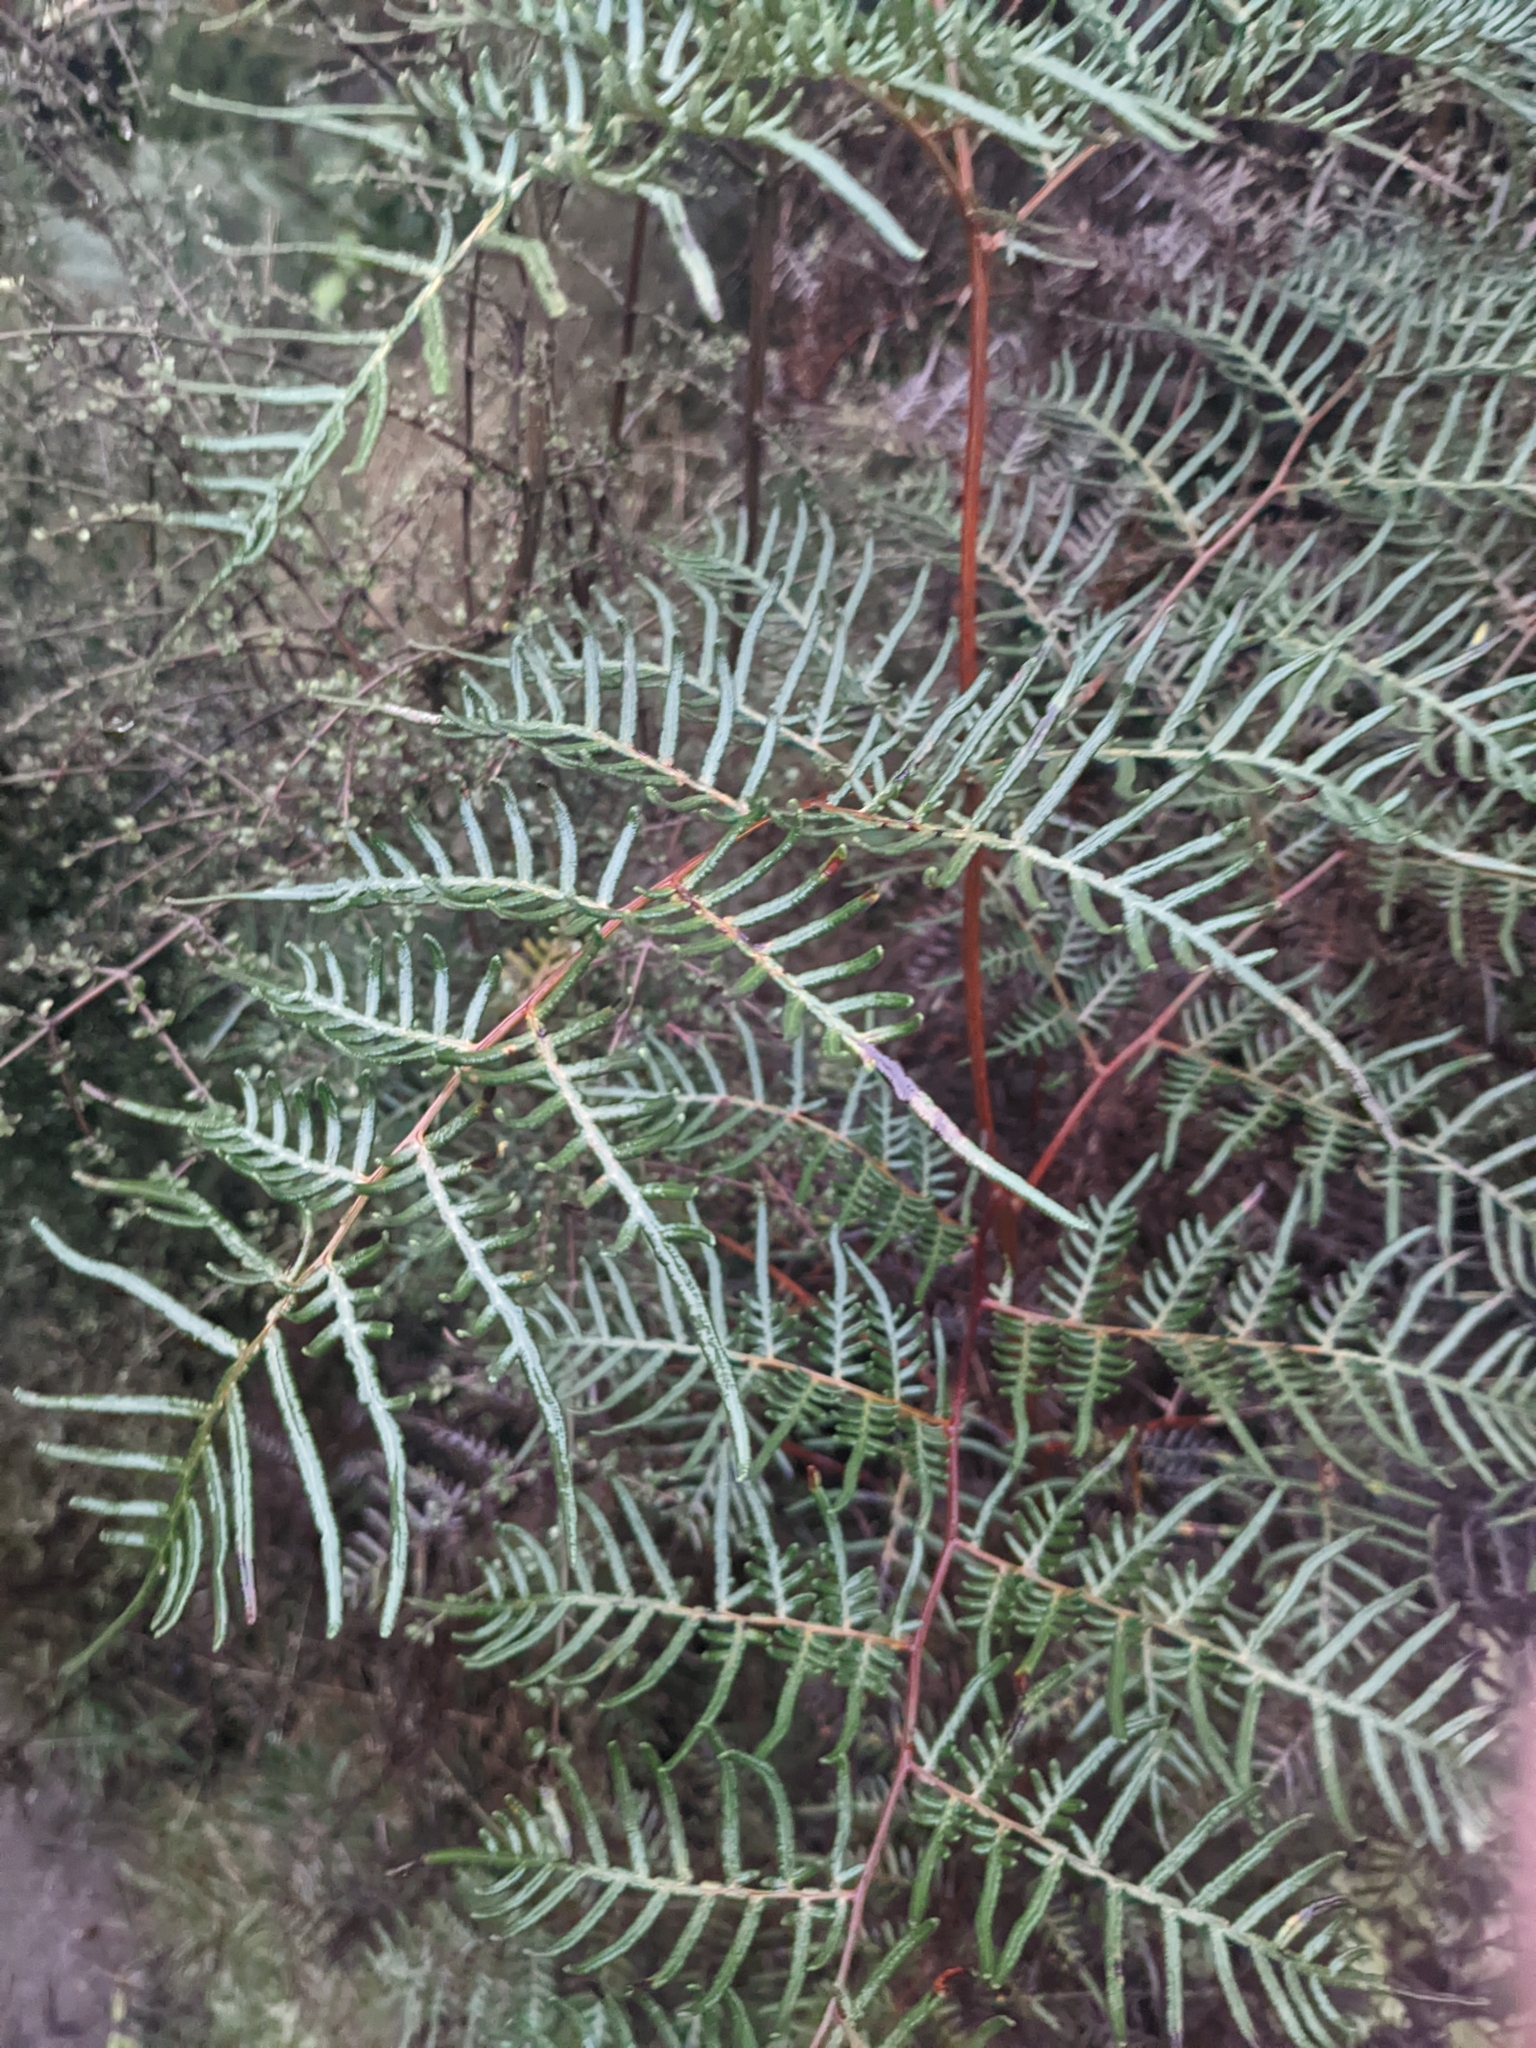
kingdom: Plantae
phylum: Tracheophyta
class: Polypodiopsida
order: Polypodiales
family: Dennstaedtiaceae
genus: Pteridium
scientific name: Pteridium esculentum
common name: Bracken fern
